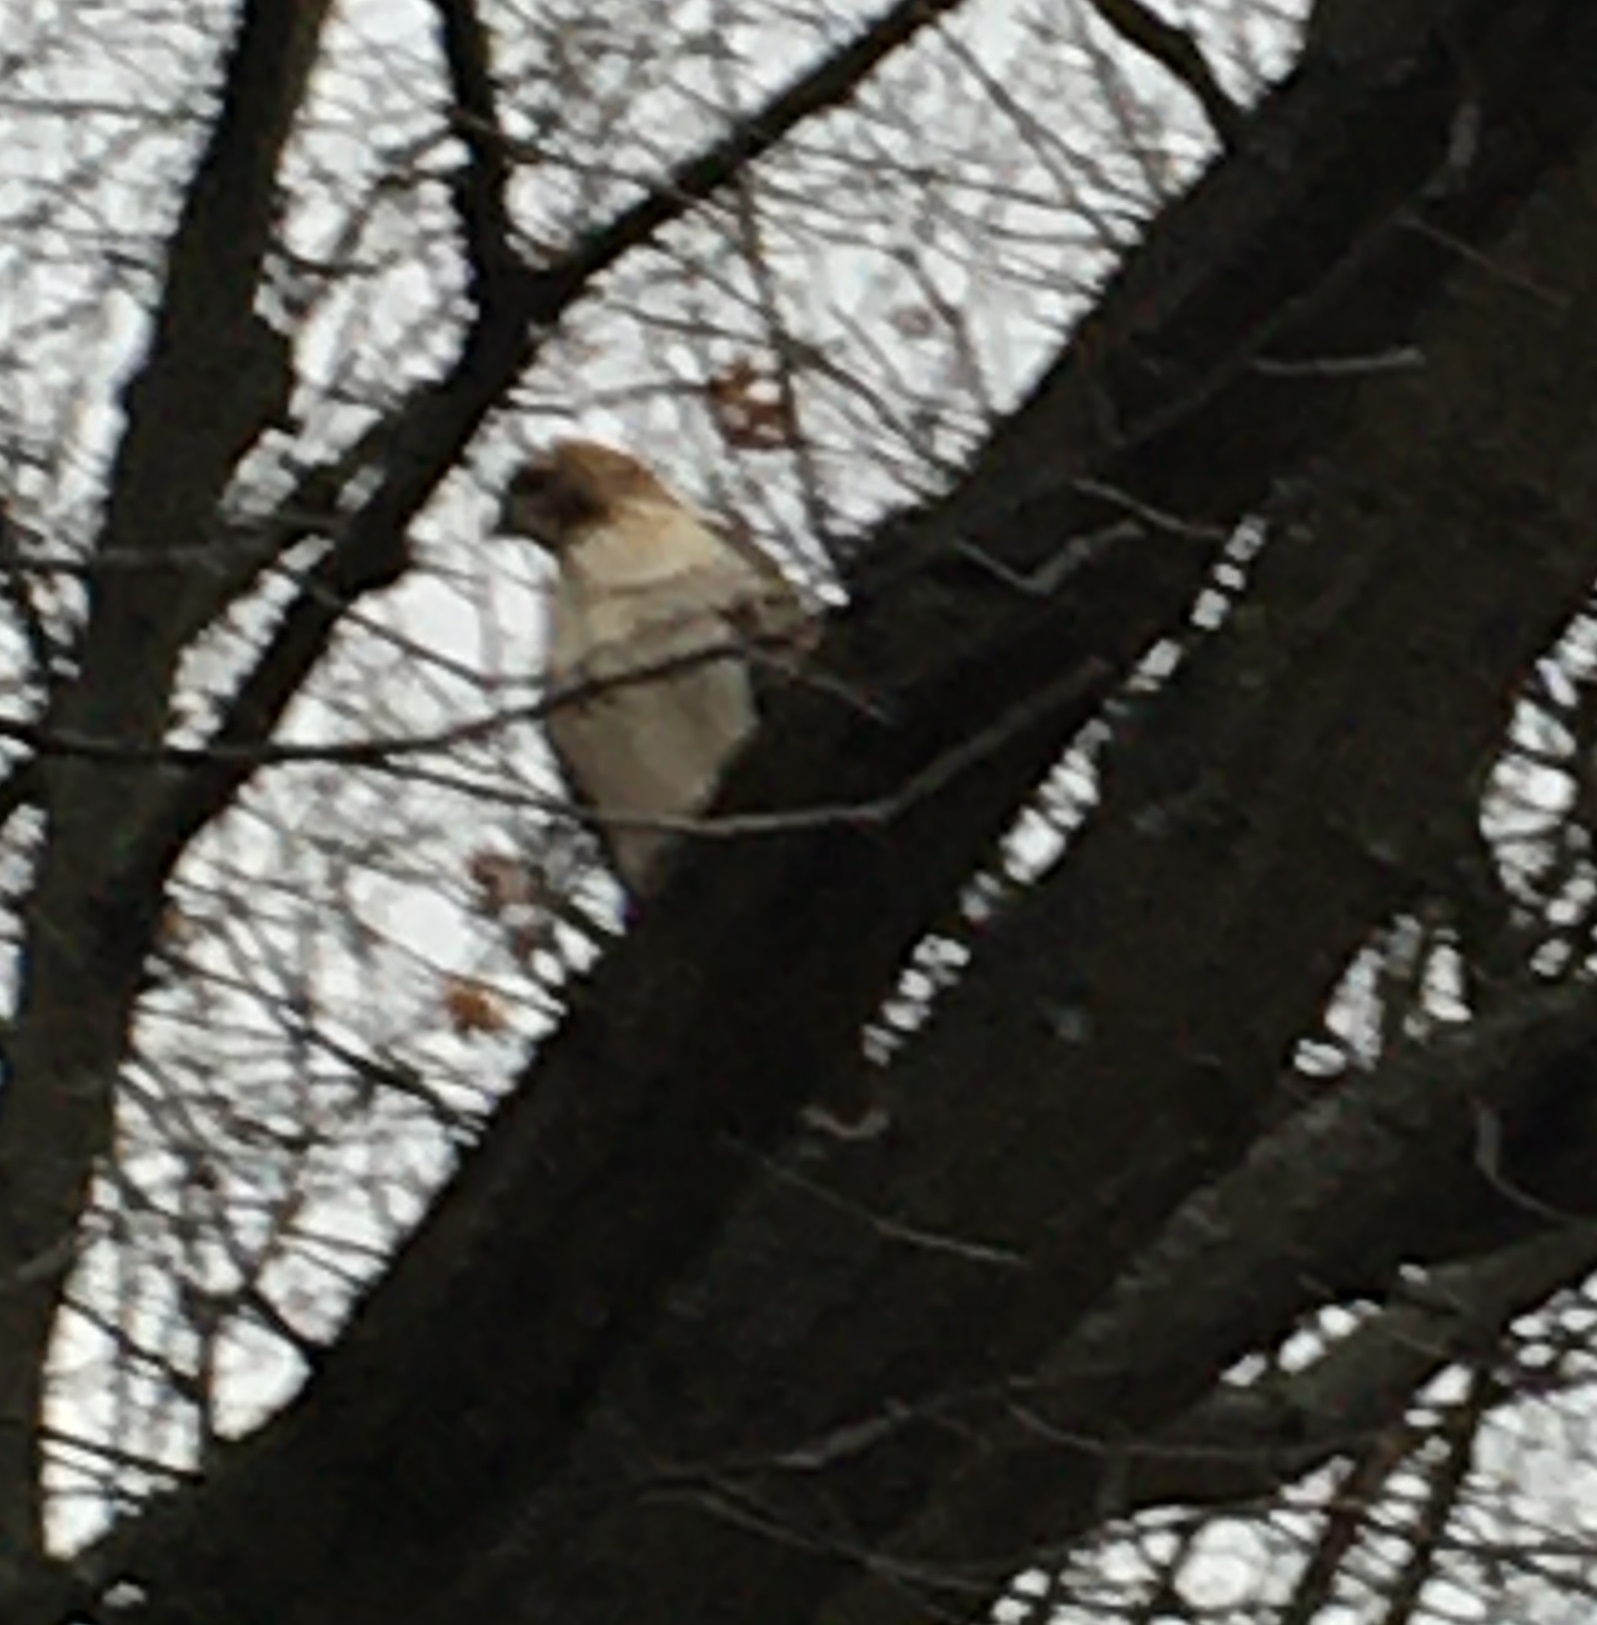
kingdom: Animalia
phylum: Chordata
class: Aves
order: Accipitriformes
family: Accipitridae
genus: Buteo
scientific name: Buteo jamaicensis
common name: Red-tailed hawk
